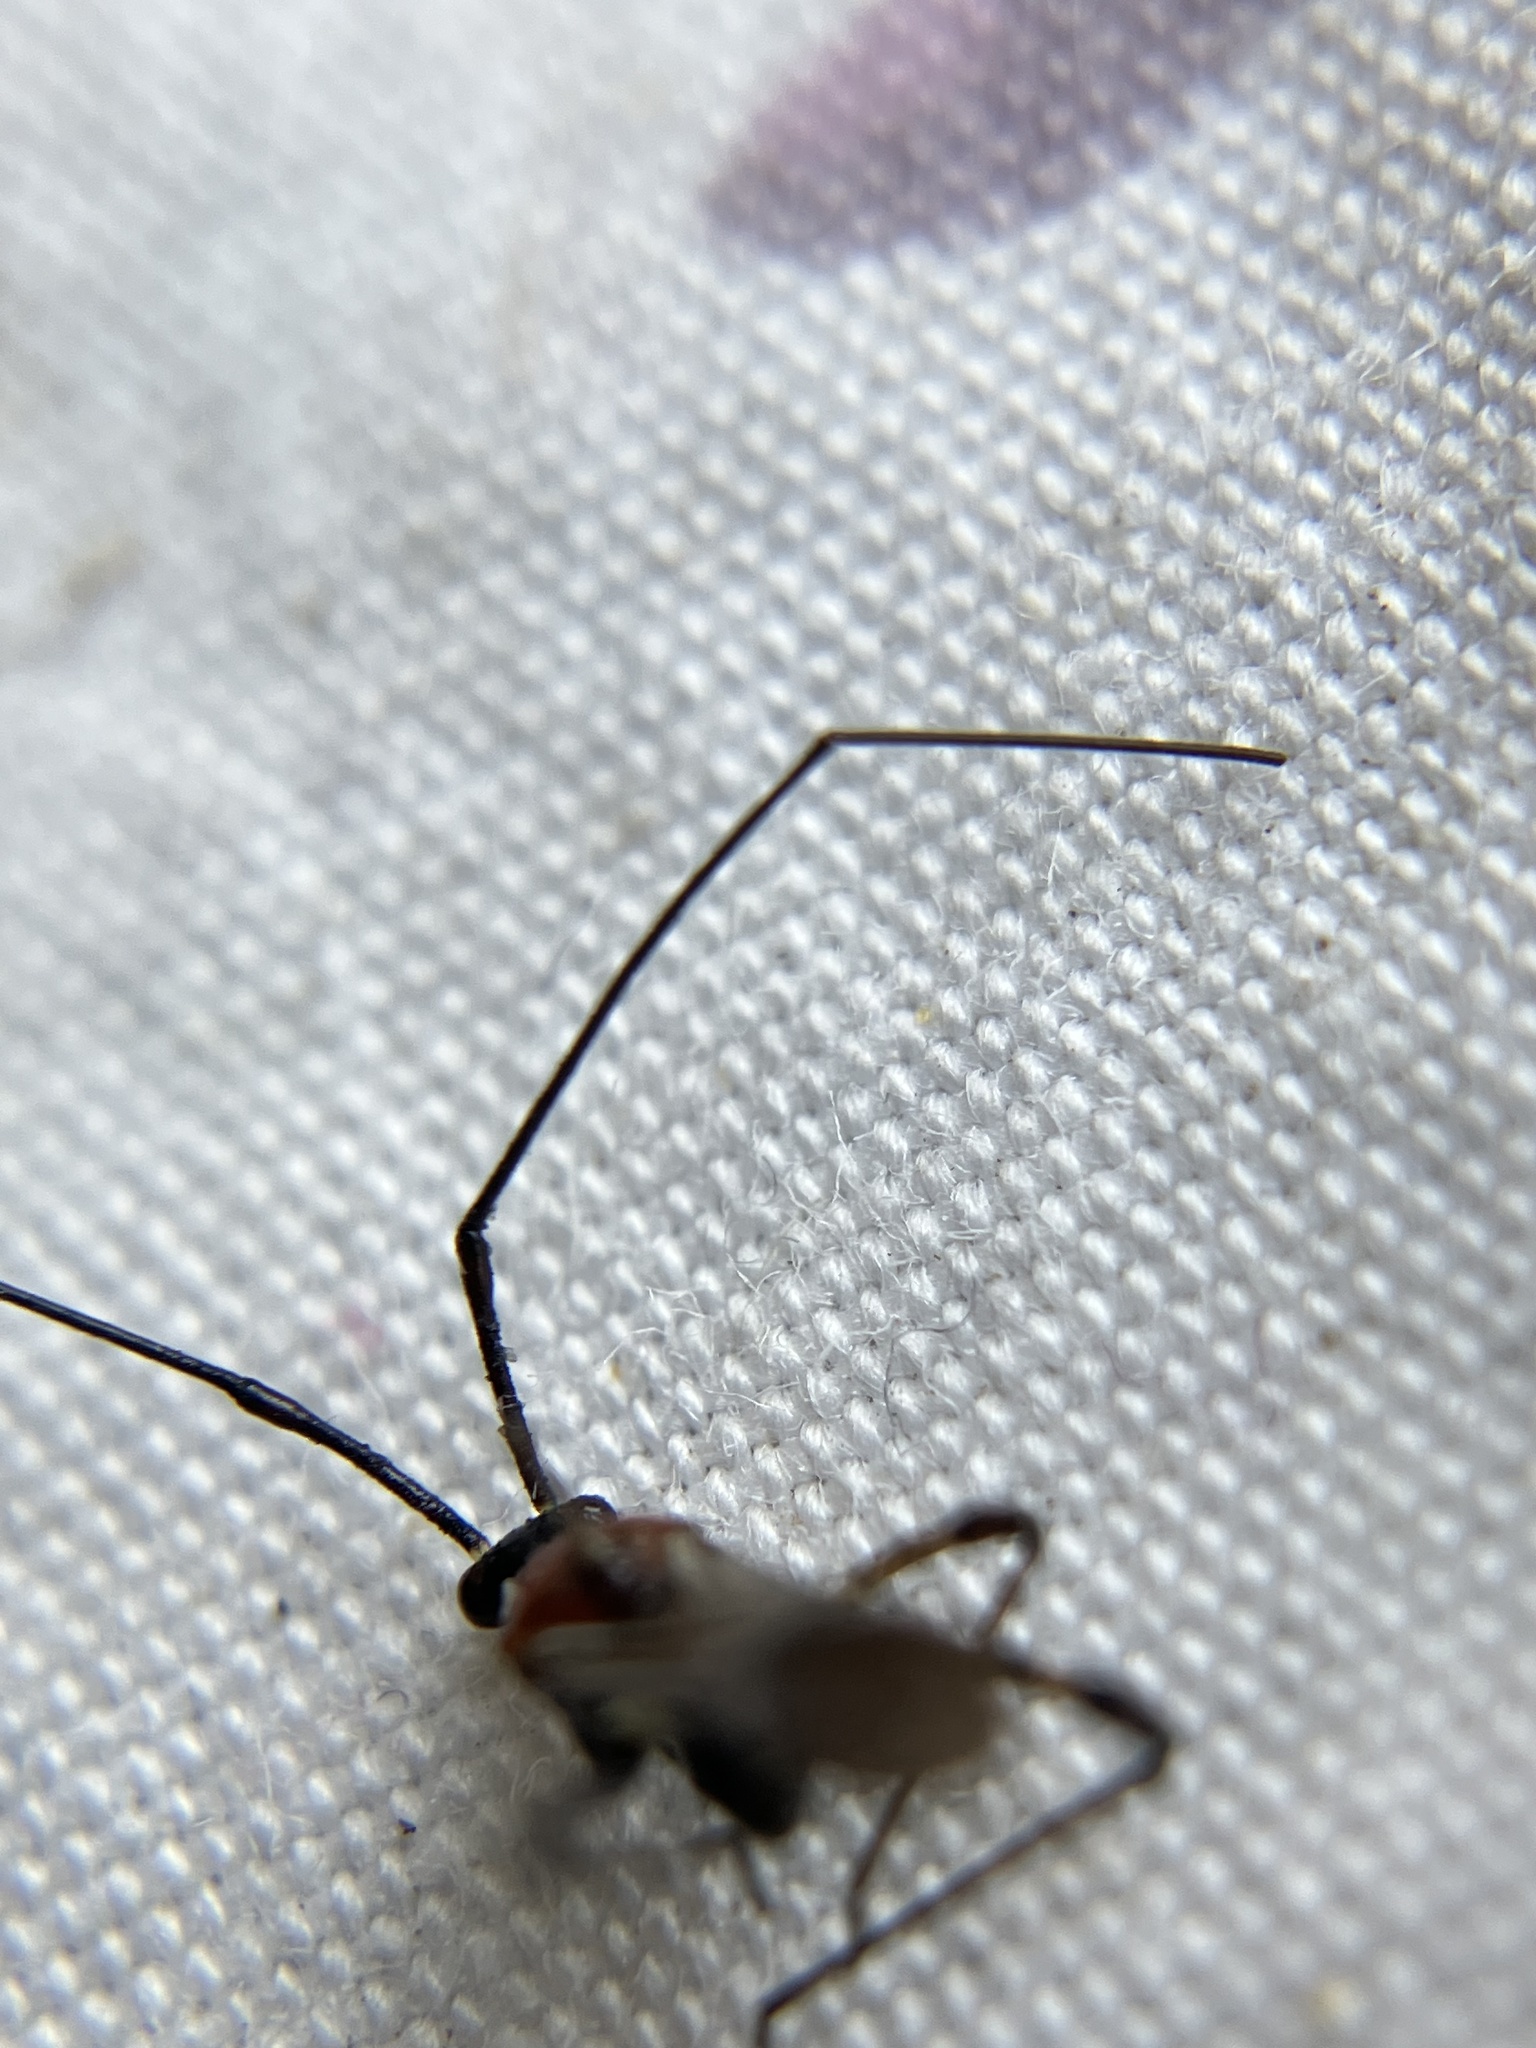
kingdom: Animalia
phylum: Arthropoda
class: Insecta
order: Hemiptera
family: Miridae
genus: Helopeltis
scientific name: Helopeltis antonii
